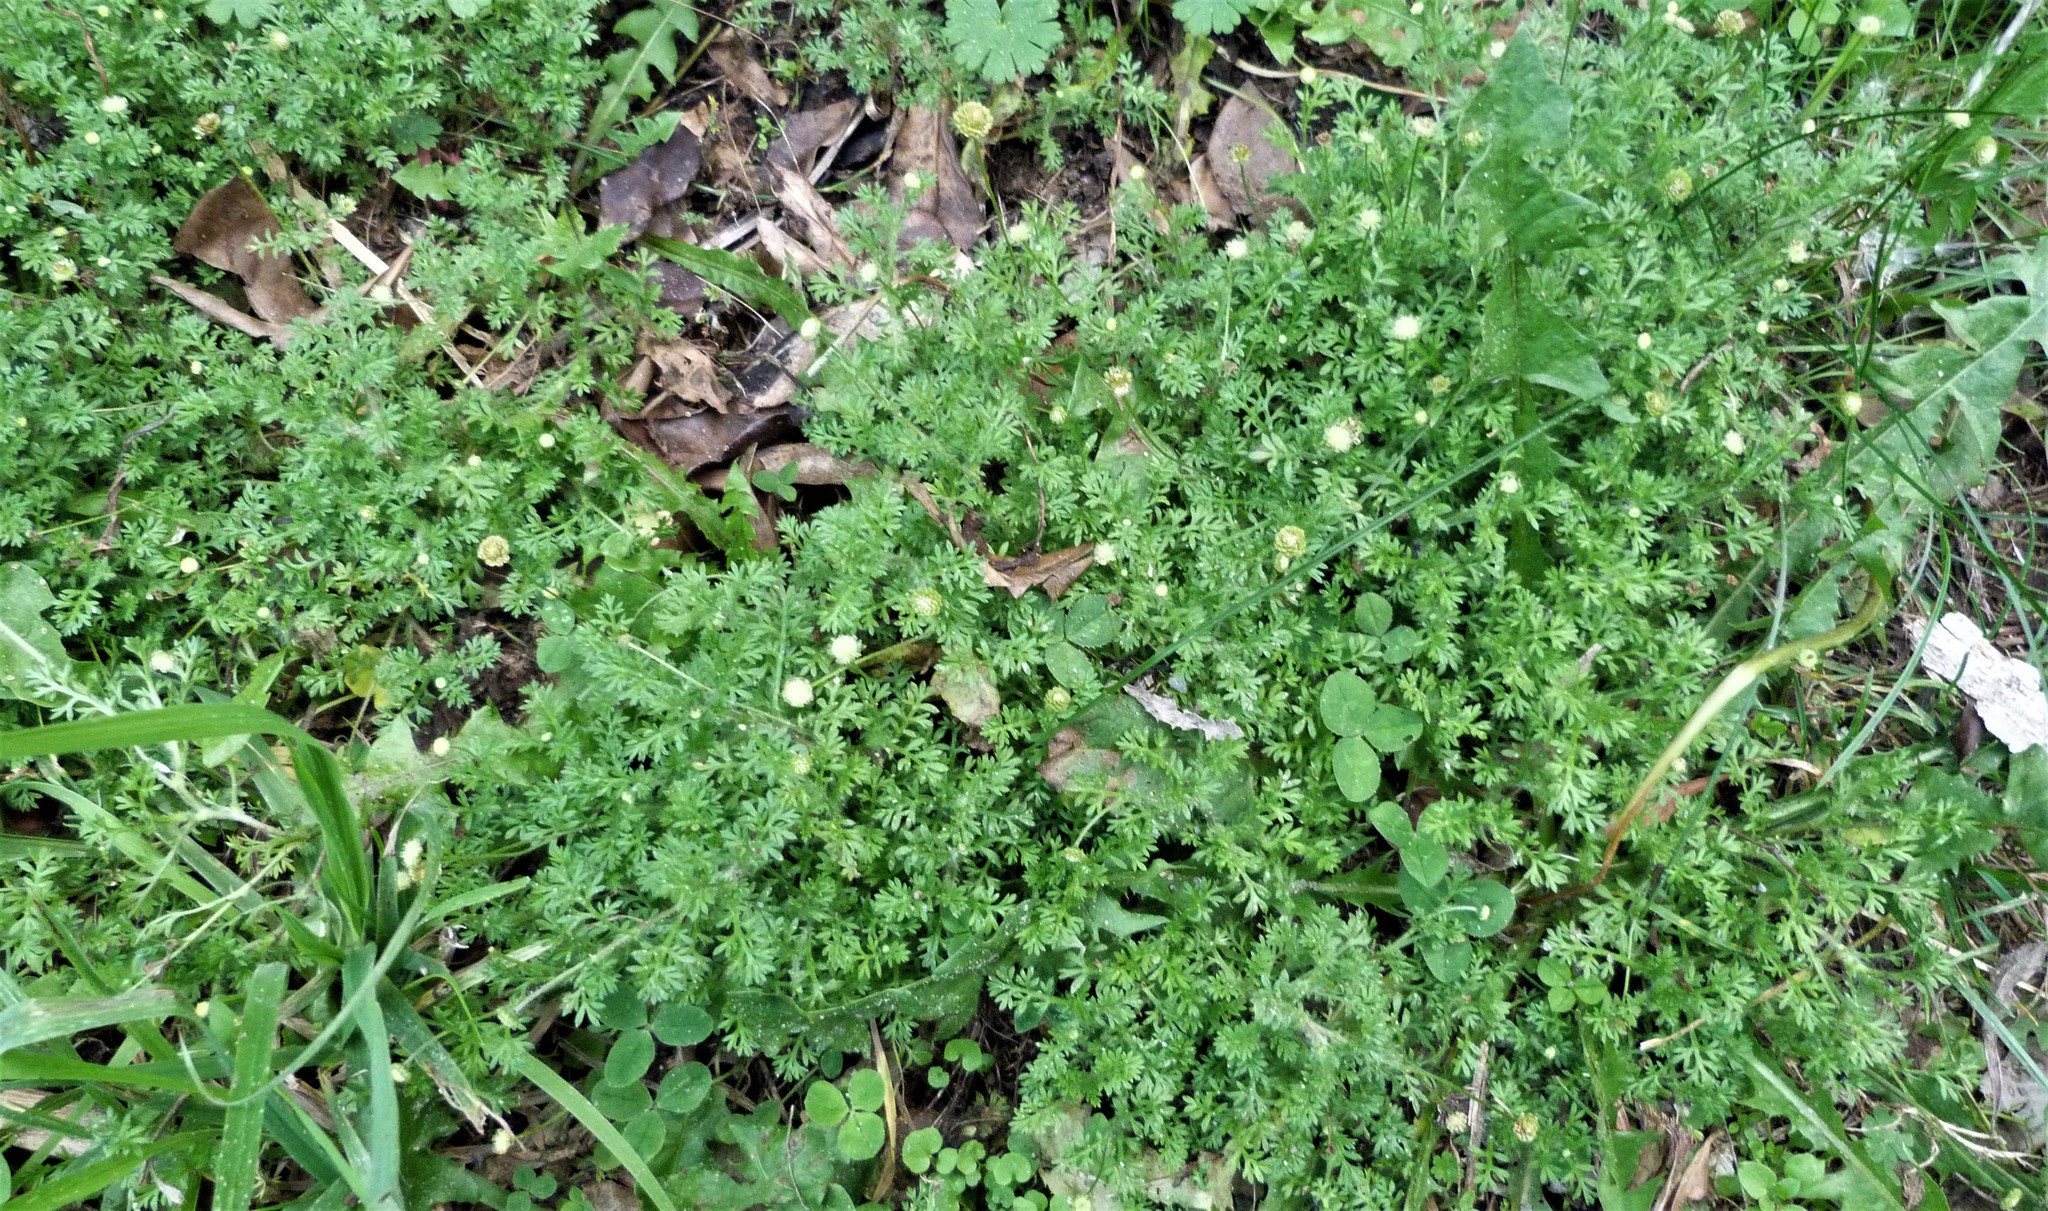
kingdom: Plantae
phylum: Tracheophyta
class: Magnoliopsida
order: Asterales
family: Asteraceae
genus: Cotula
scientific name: Cotula australis
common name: Australian waterbuttons
